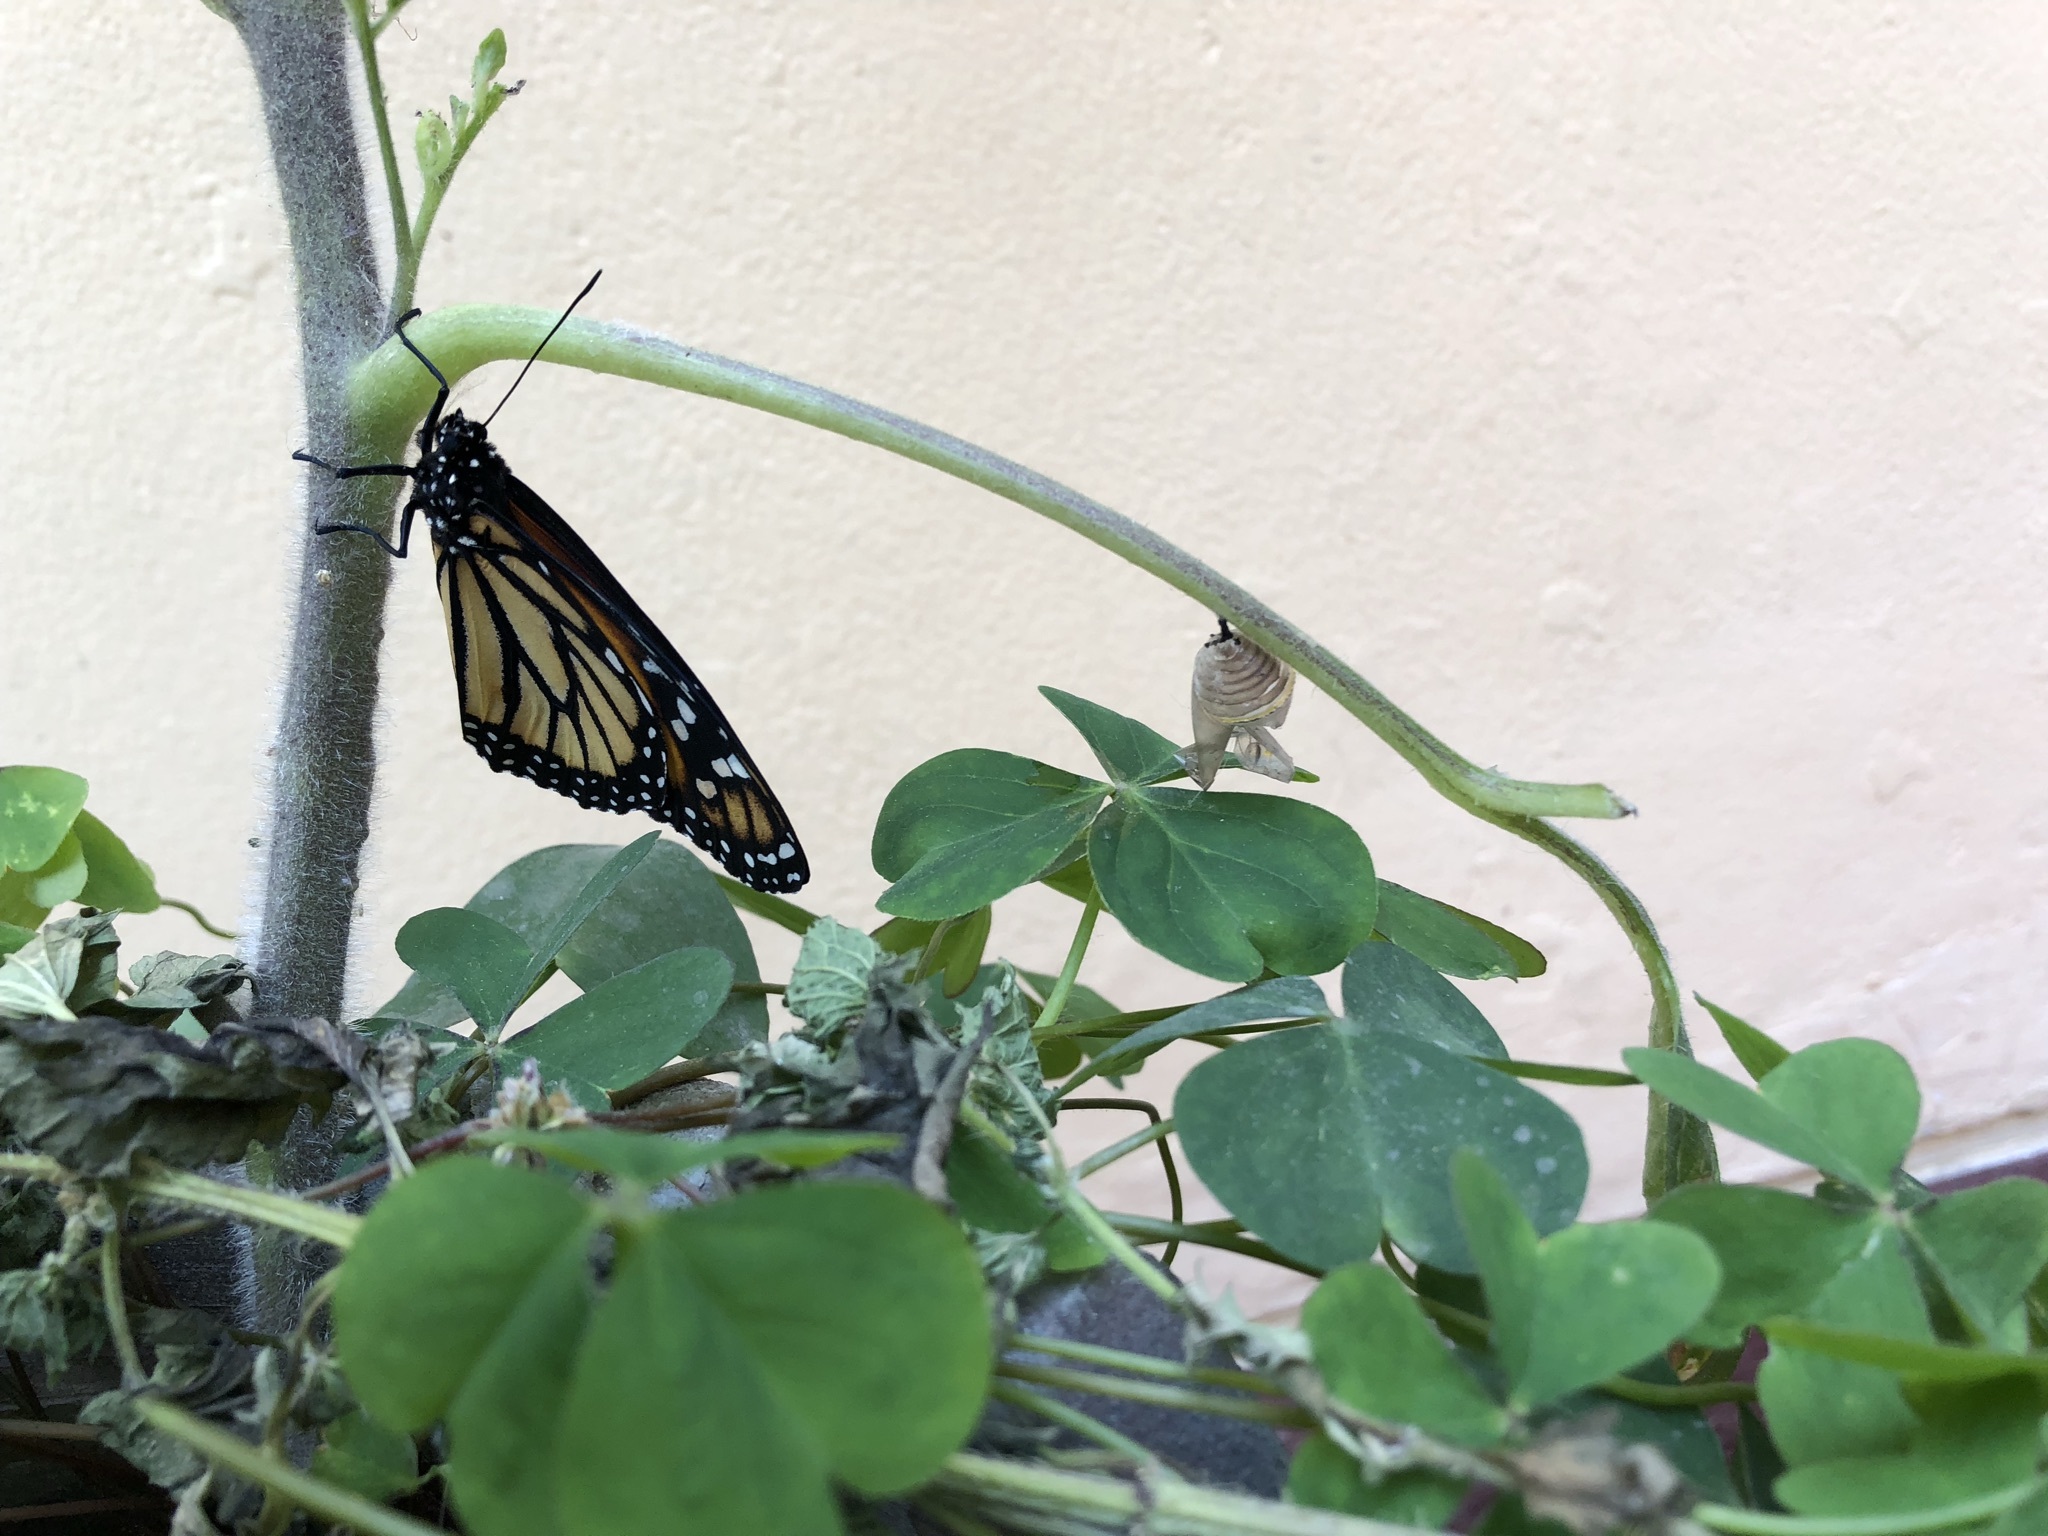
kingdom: Animalia
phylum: Arthropoda
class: Insecta
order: Lepidoptera
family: Nymphalidae
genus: Danaus
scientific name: Danaus plexippus
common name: Monarch
